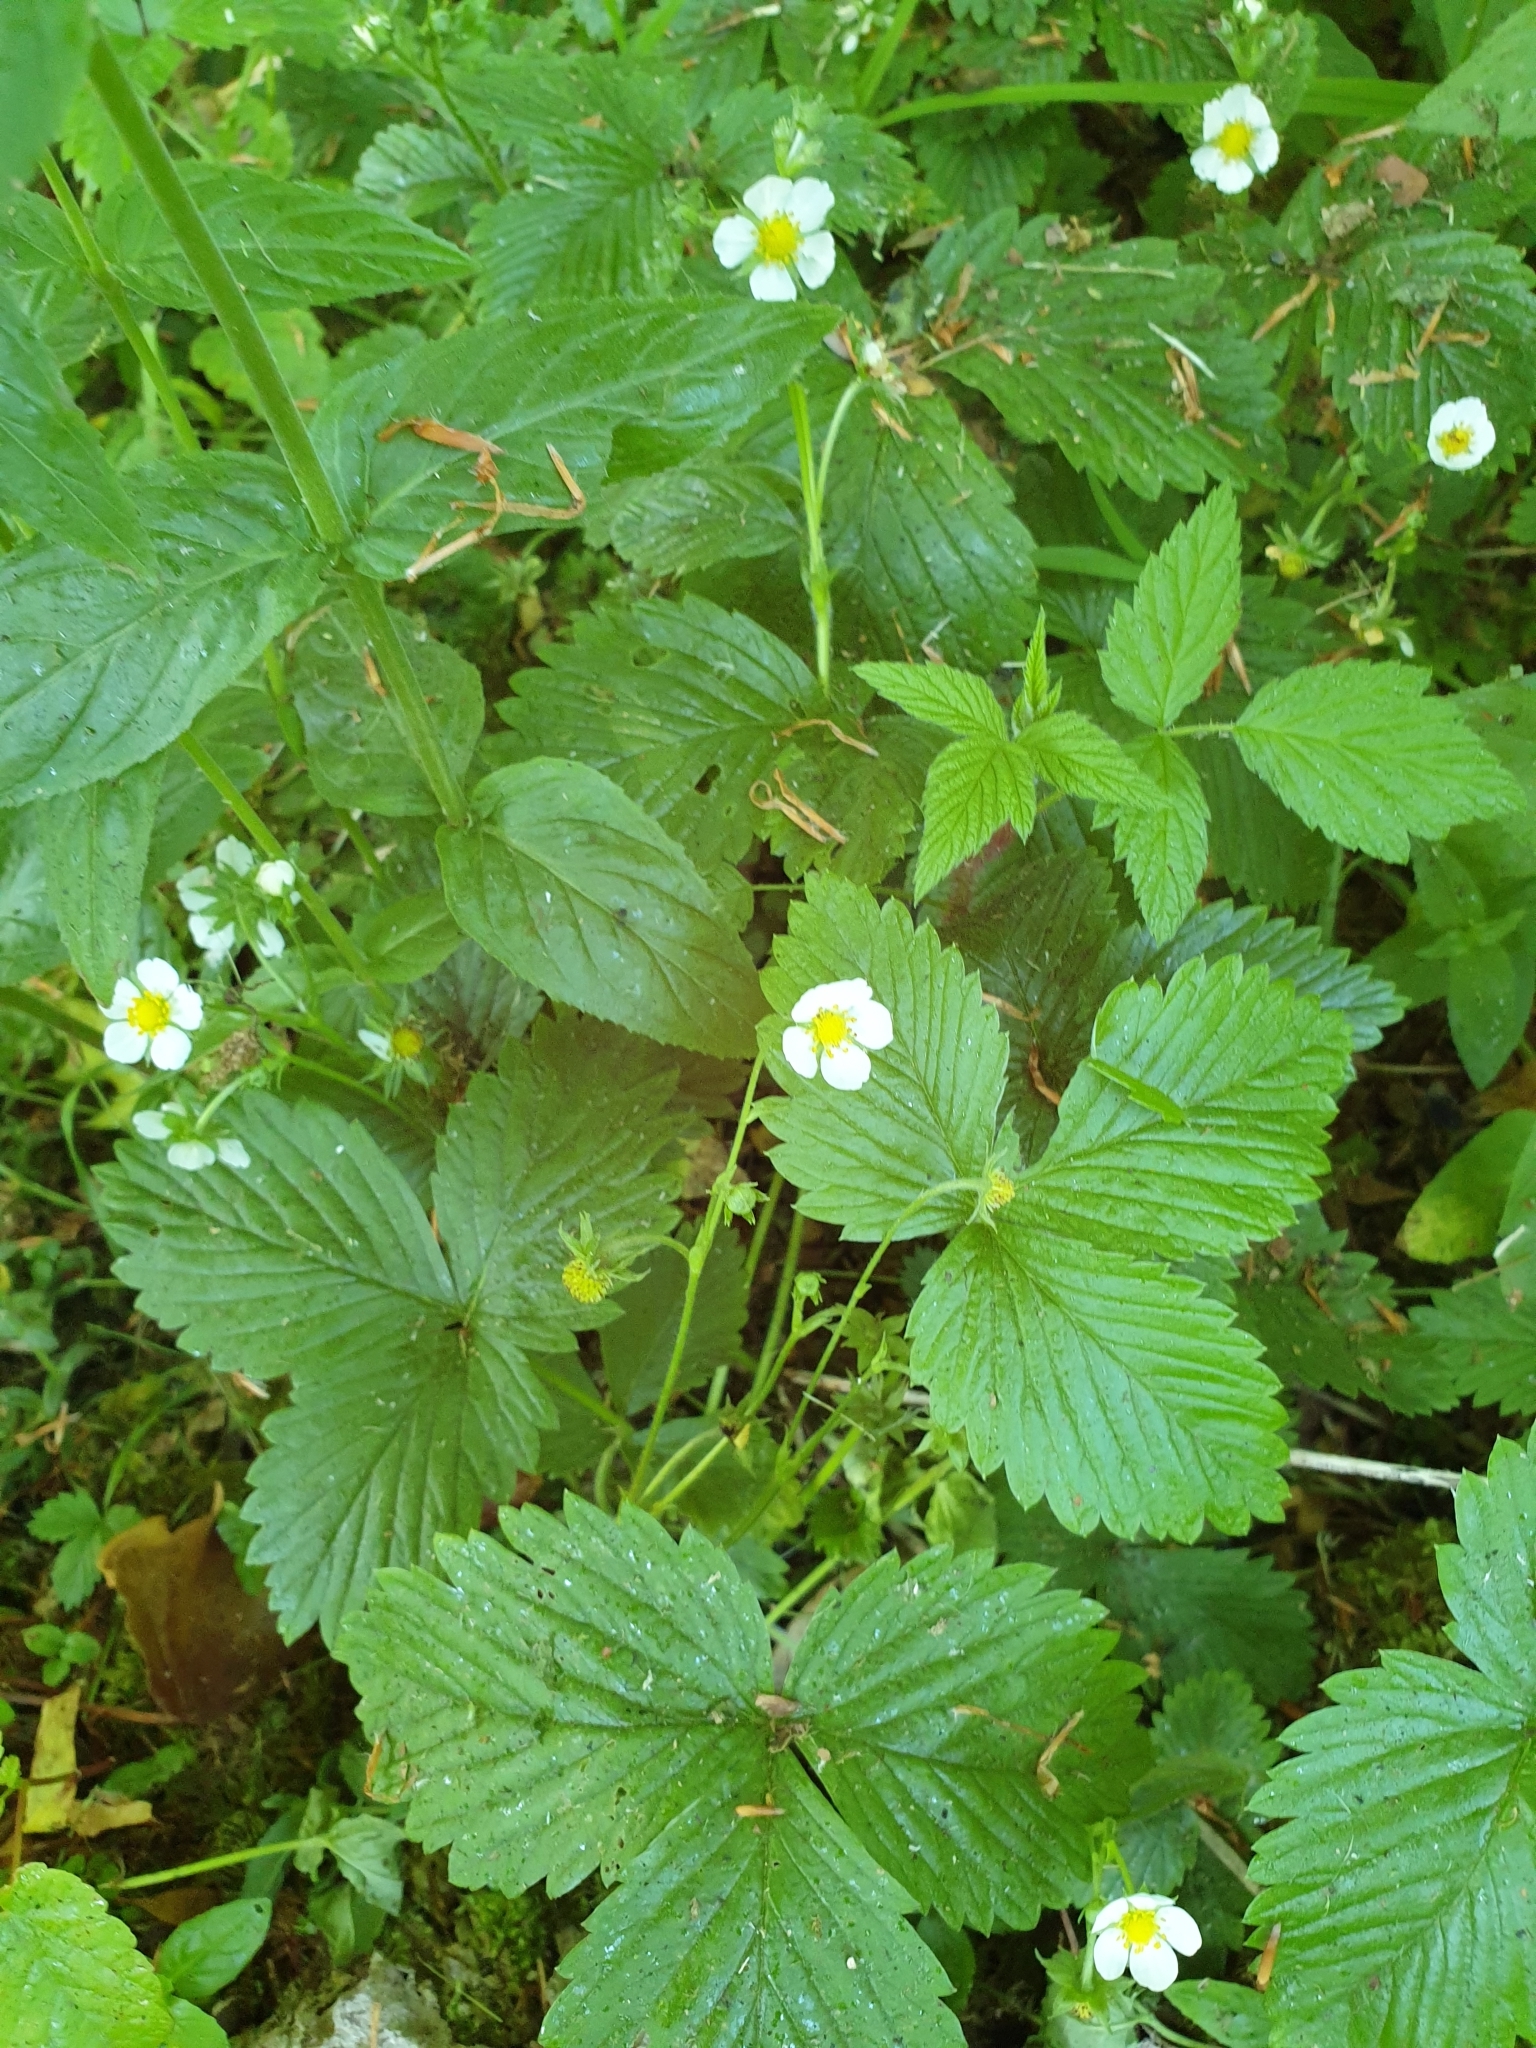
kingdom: Plantae
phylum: Tracheophyta
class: Magnoliopsida
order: Rosales
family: Rosaceae
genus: Fragaria
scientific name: Fragaria vesca
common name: Wild strawberry
